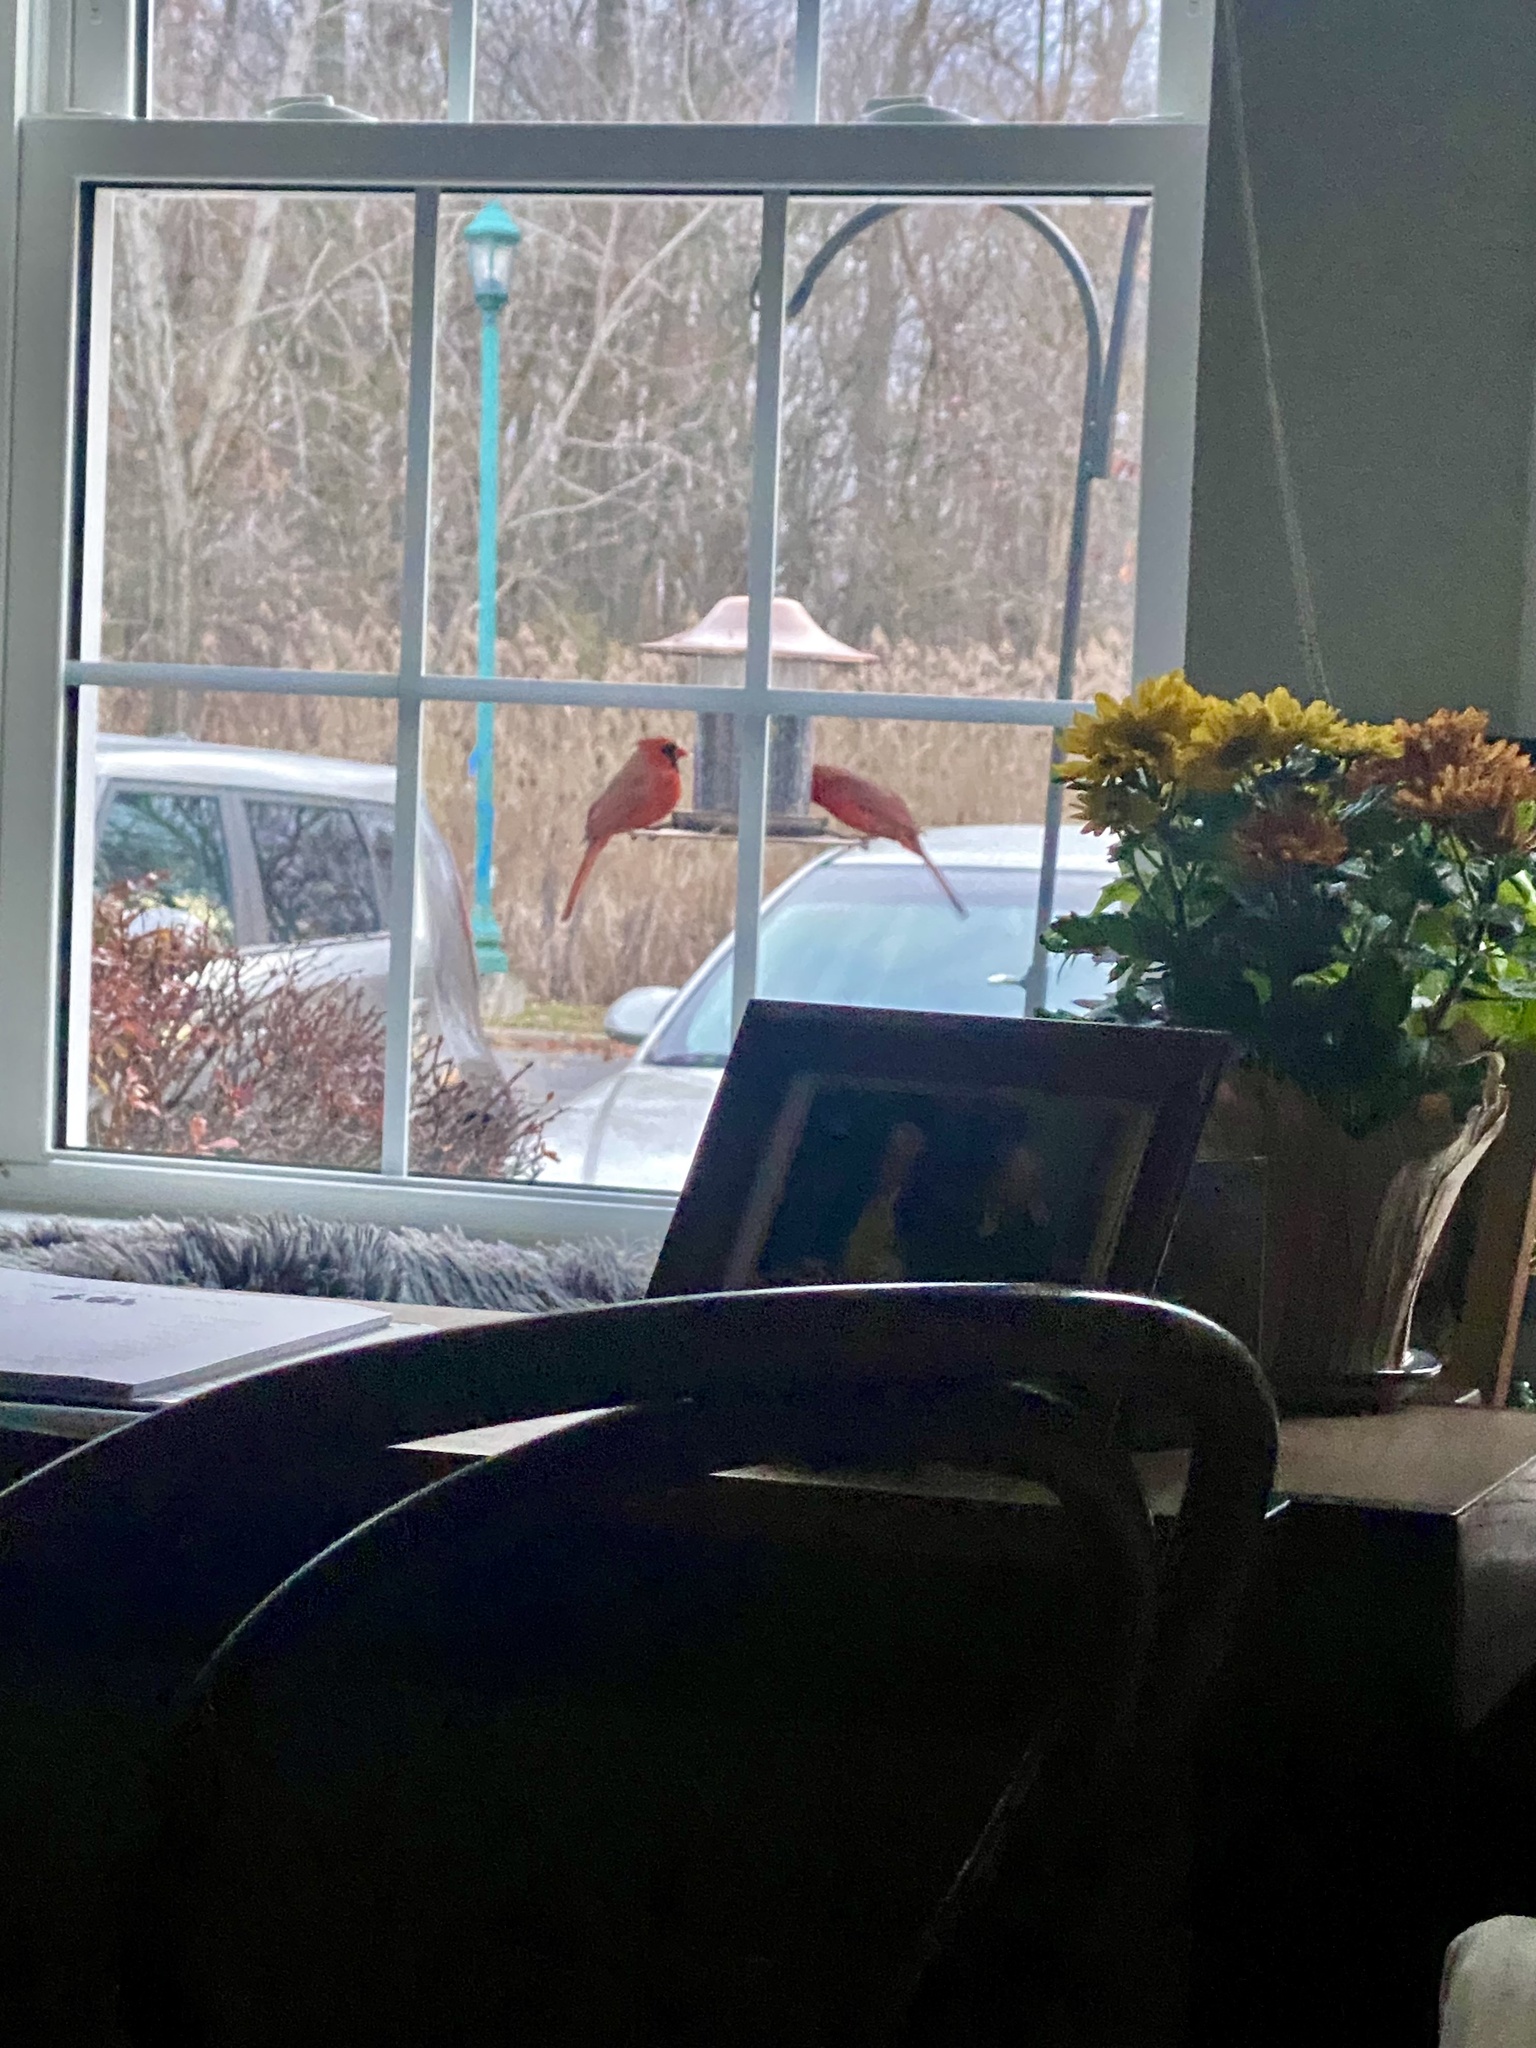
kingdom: Animalia
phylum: Chordata
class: Aves
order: Passeriformes
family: Cardinalidae
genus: Cardinalis
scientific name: Cardinalis cardinalis
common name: Northern cardinal
